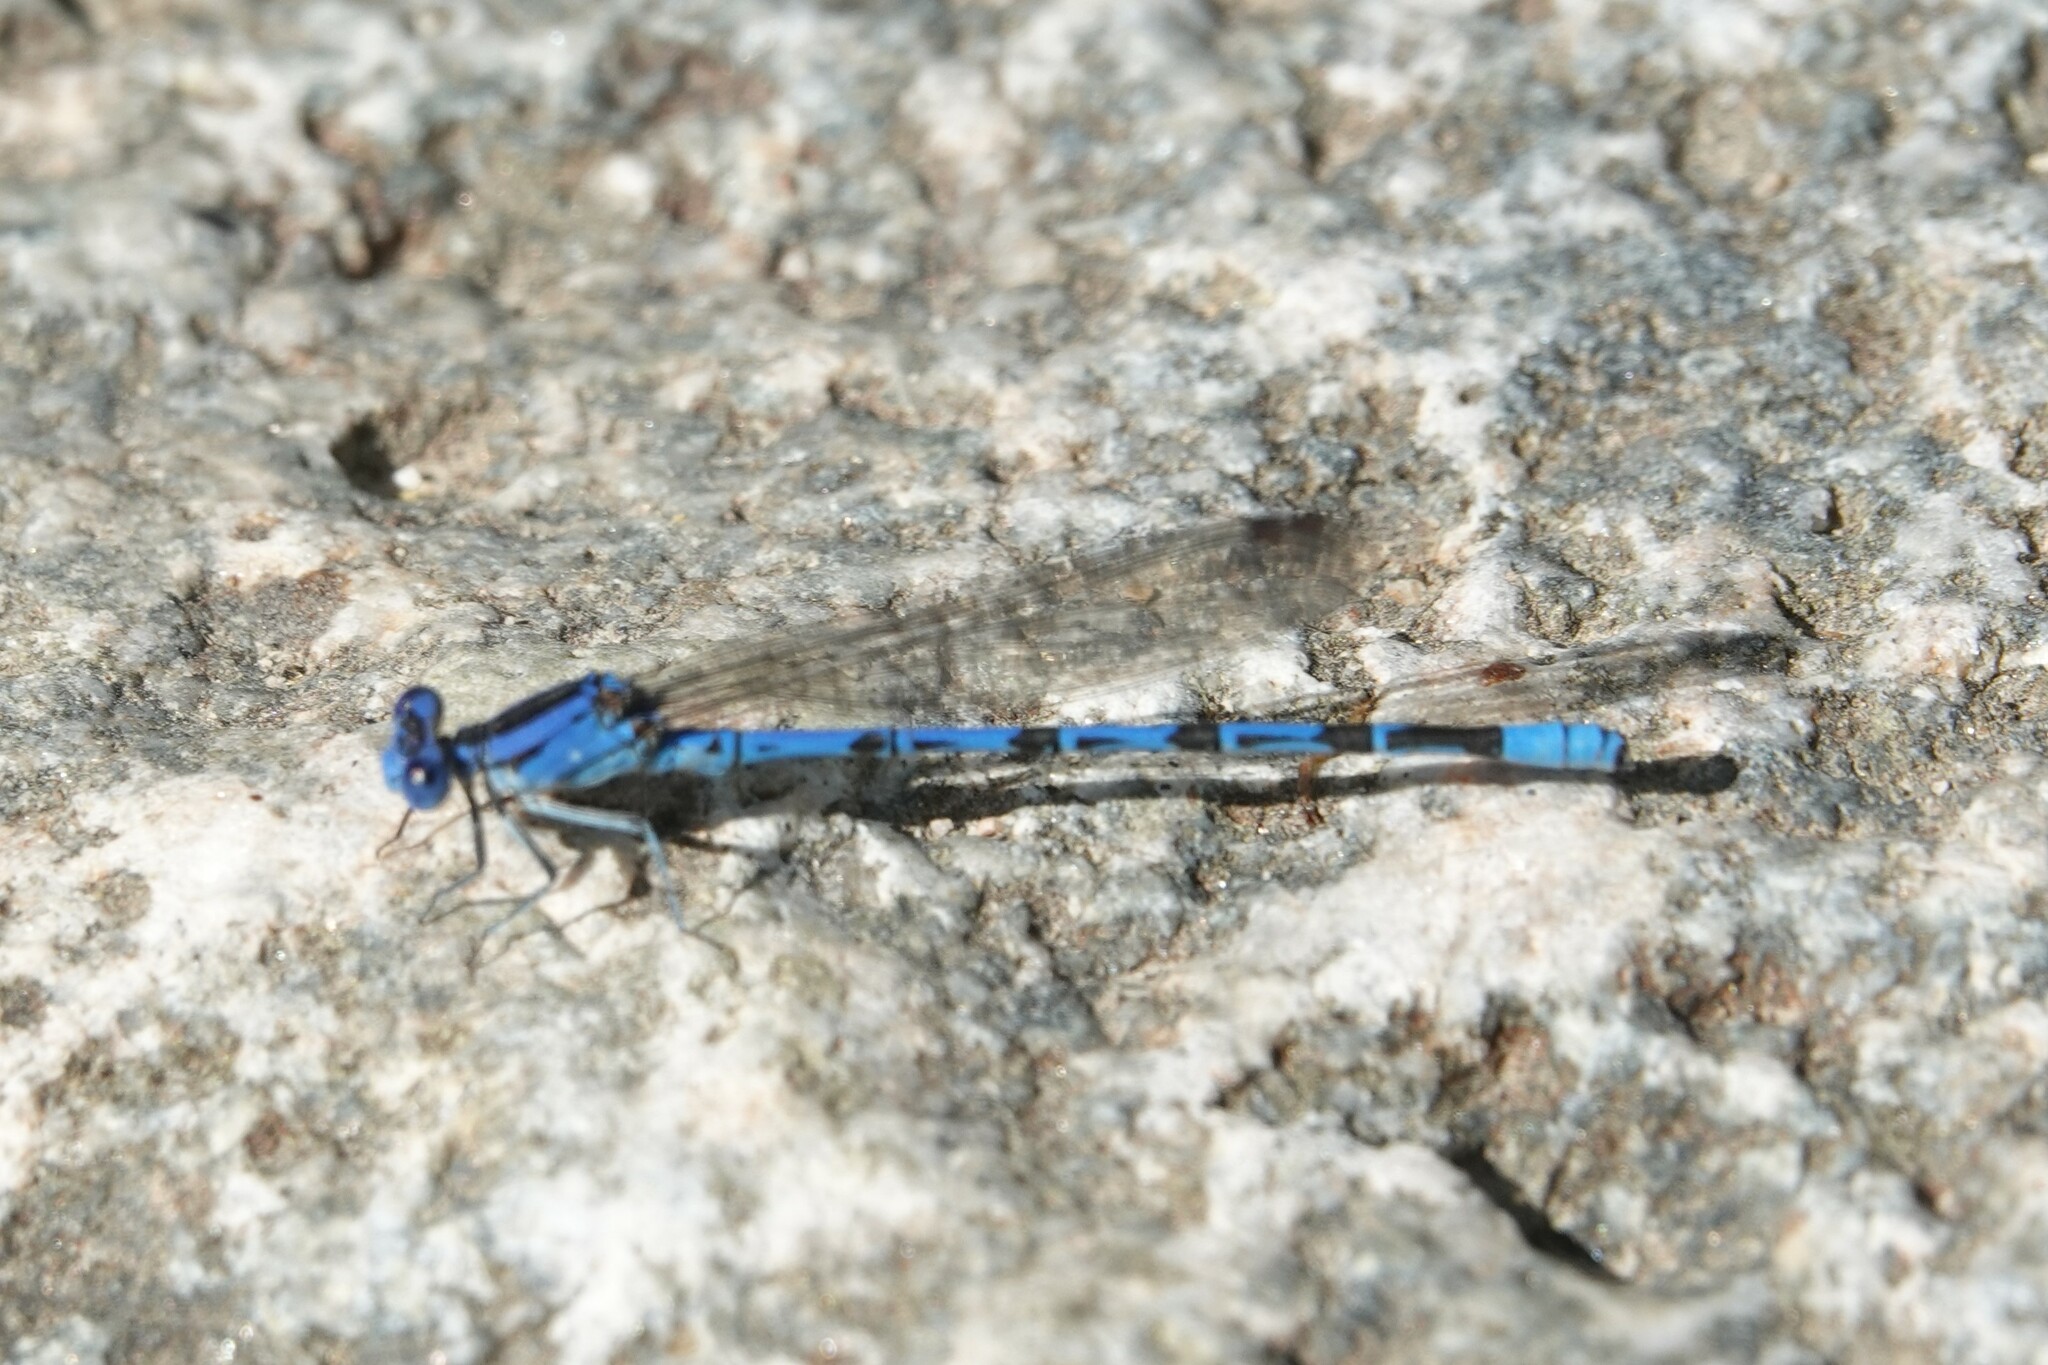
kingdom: Animalia
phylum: Arthropoda
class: Insecta
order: Odonata
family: Coenagrionidae
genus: Argia
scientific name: Argia vivida
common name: Vivid dancer
